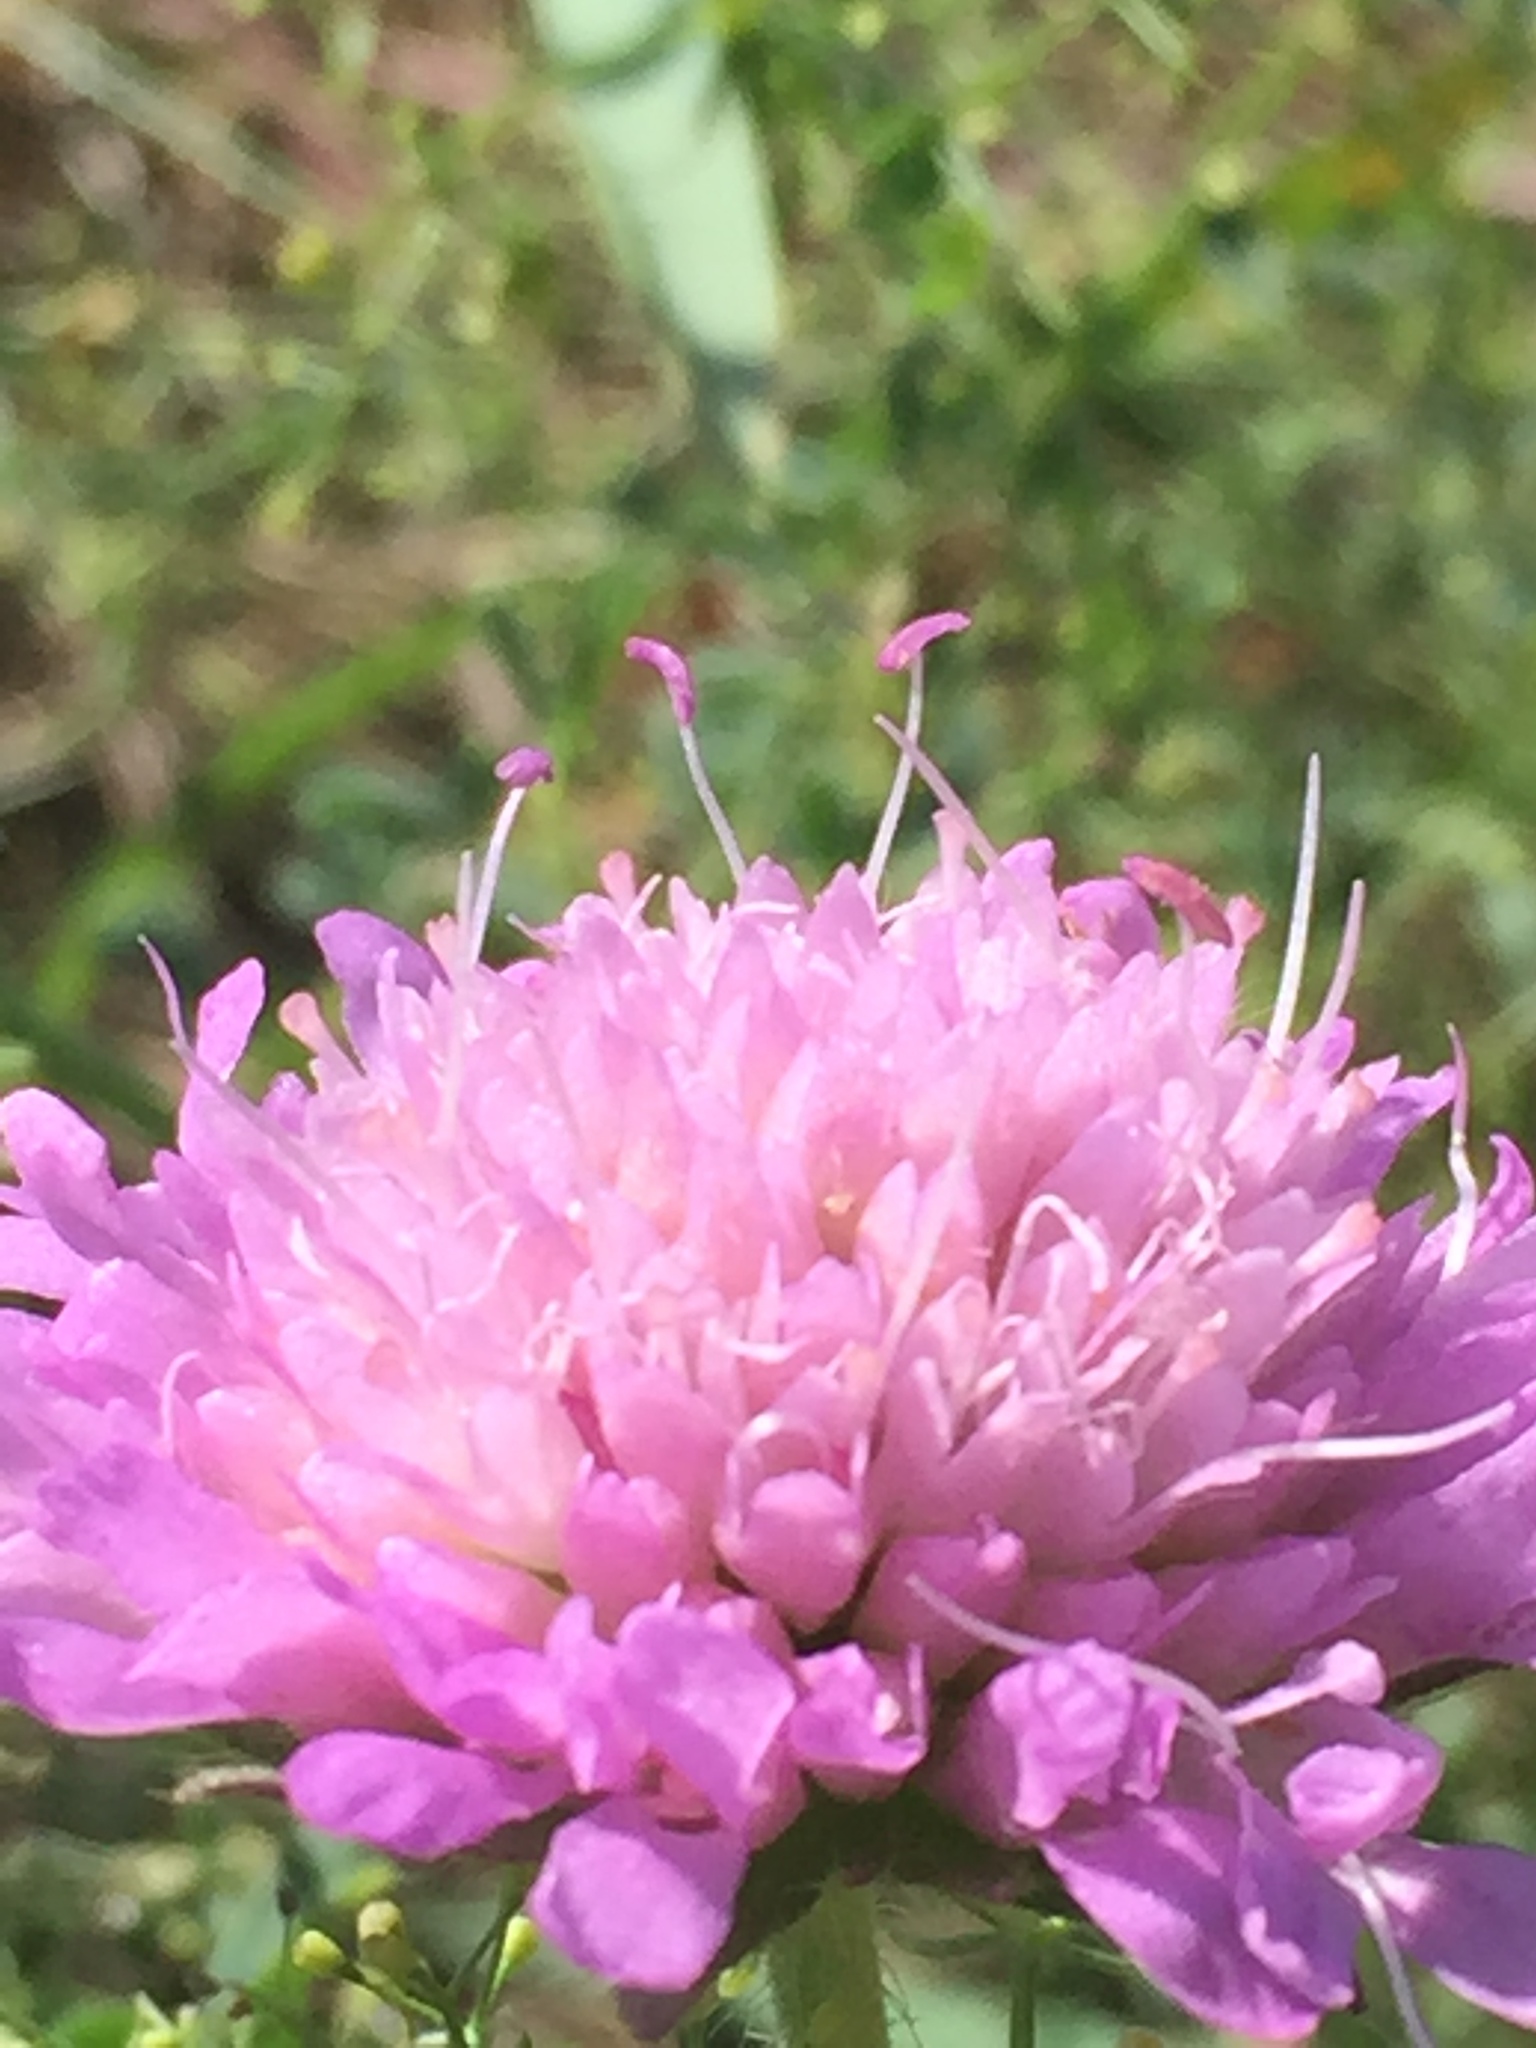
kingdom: Plantae
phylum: Tracheophyta
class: Magnoliopsida
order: Dipsacales
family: Caprifoliaceae
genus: Knautia
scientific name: Knautia arvensis
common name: Field scabiosa
